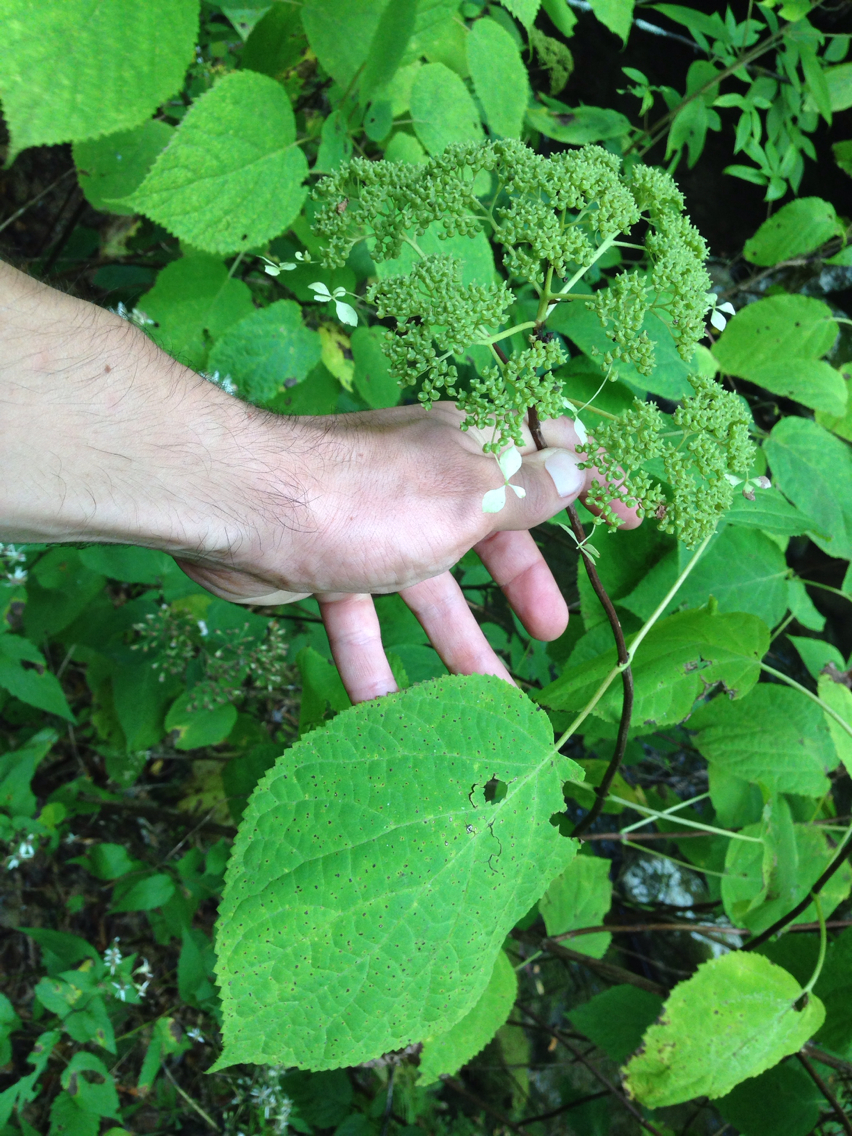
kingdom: Plantae
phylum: Tracheophyta
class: Magnoliopsida
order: Cornales
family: Hydrangeaceae
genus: Hydrangea
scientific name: Hydrangea arborescens
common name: Sevenbark
